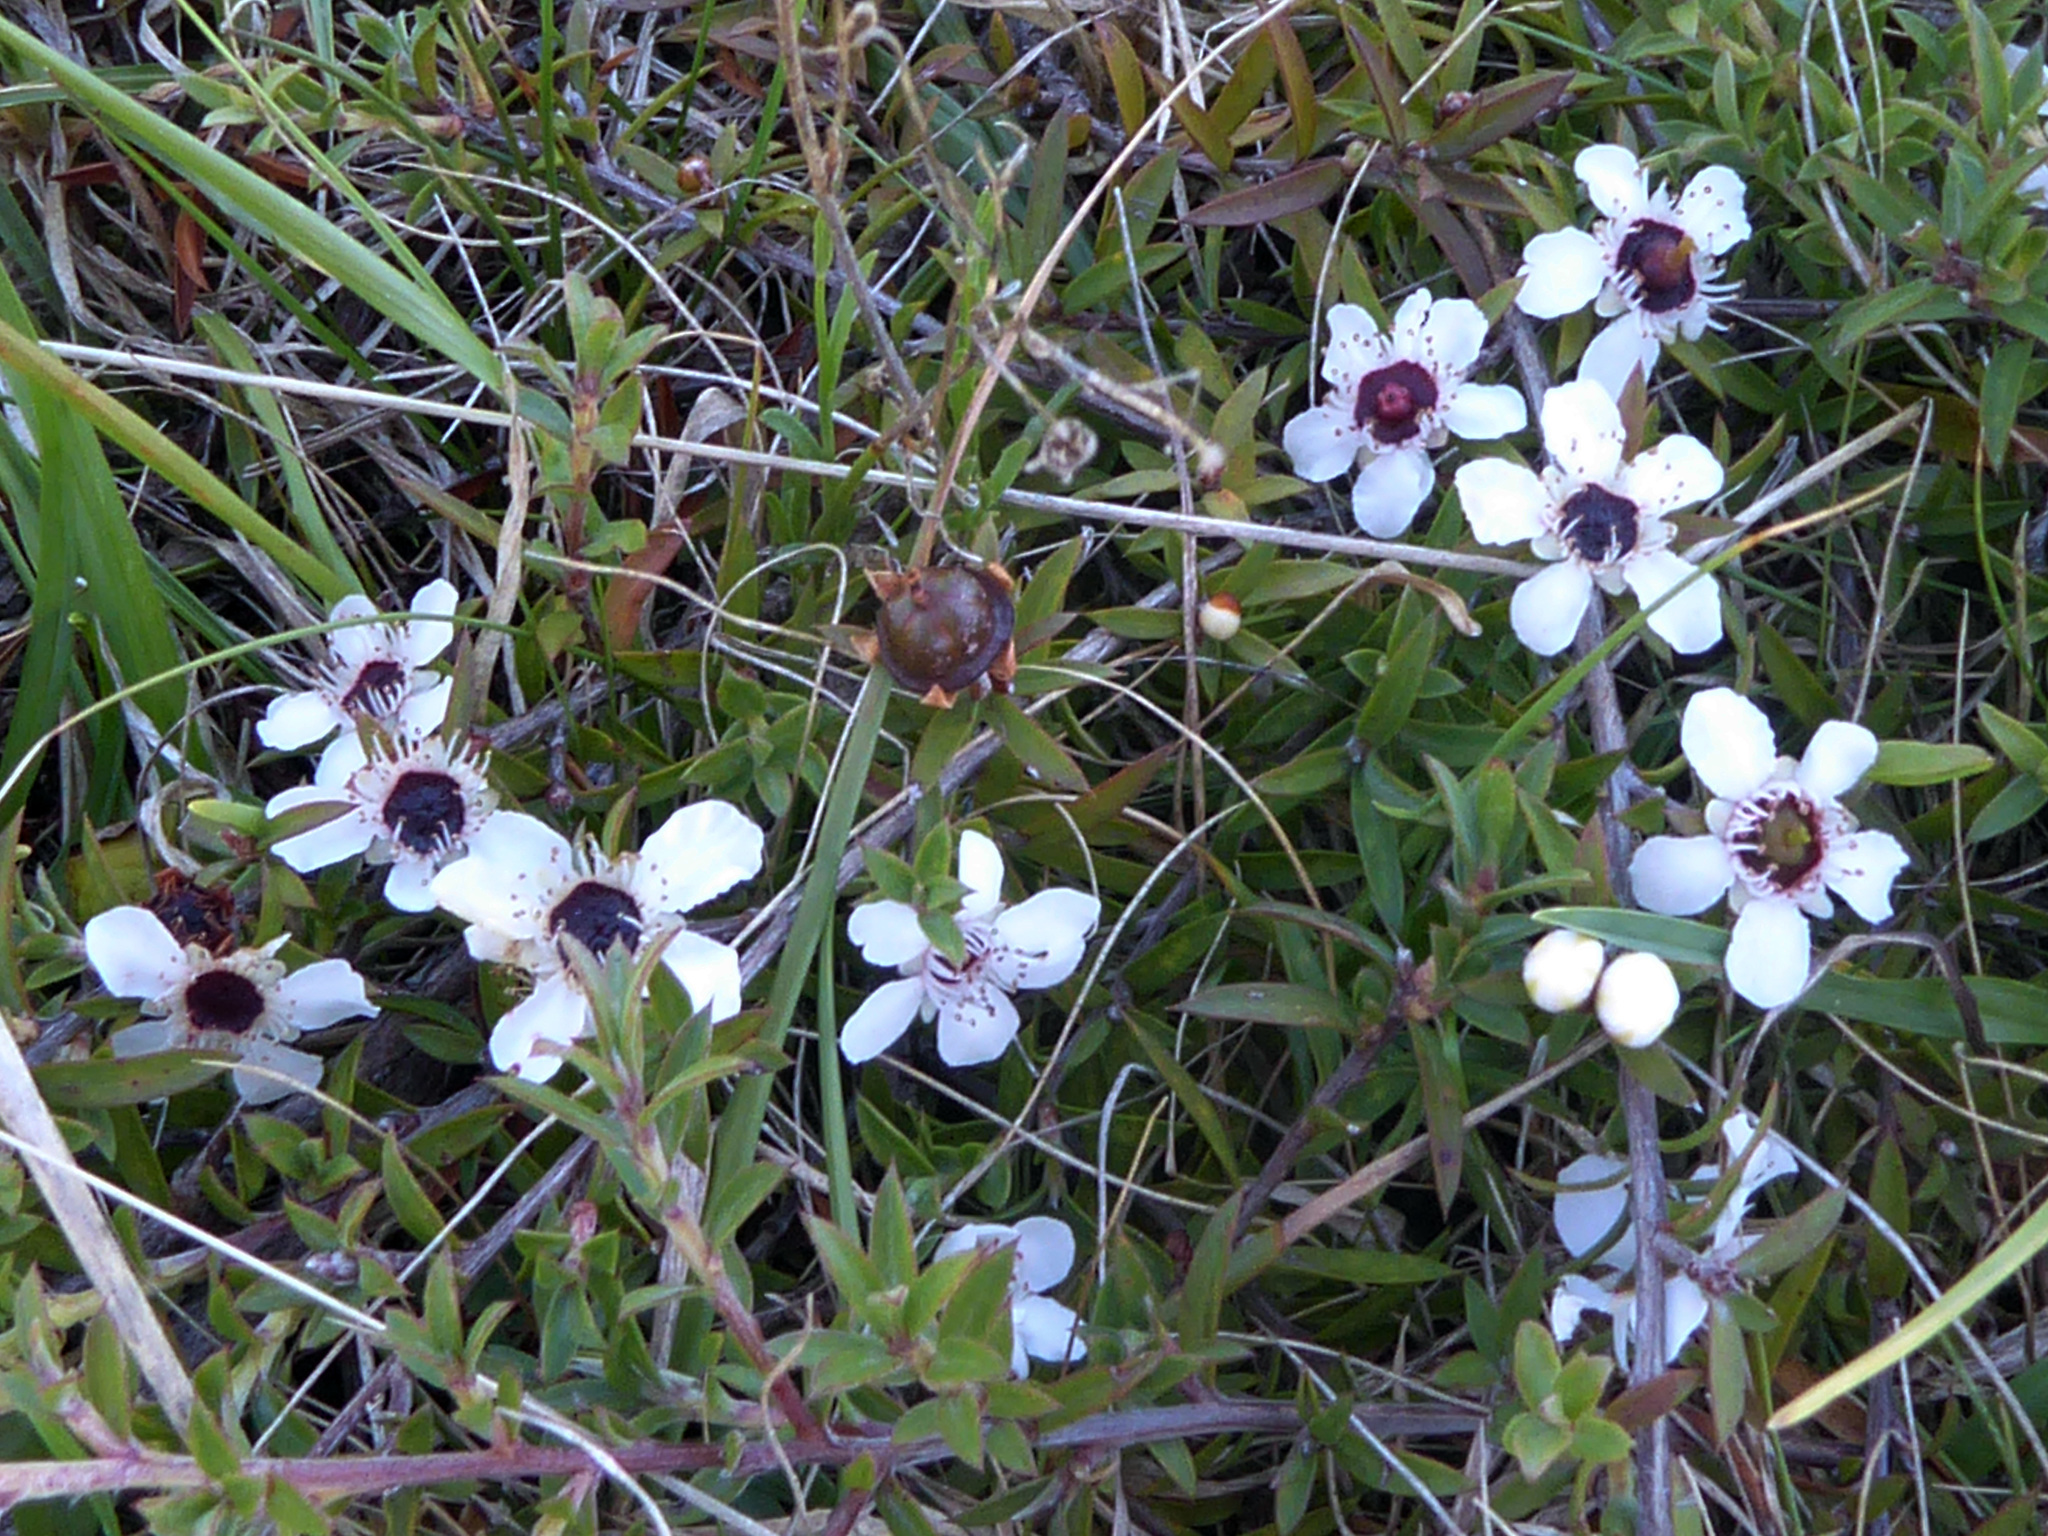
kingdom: Plantae
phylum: Tracheophyta
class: Magnoliopsida
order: Myrtales
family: Myrtaceae
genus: Leptospermum
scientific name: Leptospermum scoparium
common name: Broom tea-tree
